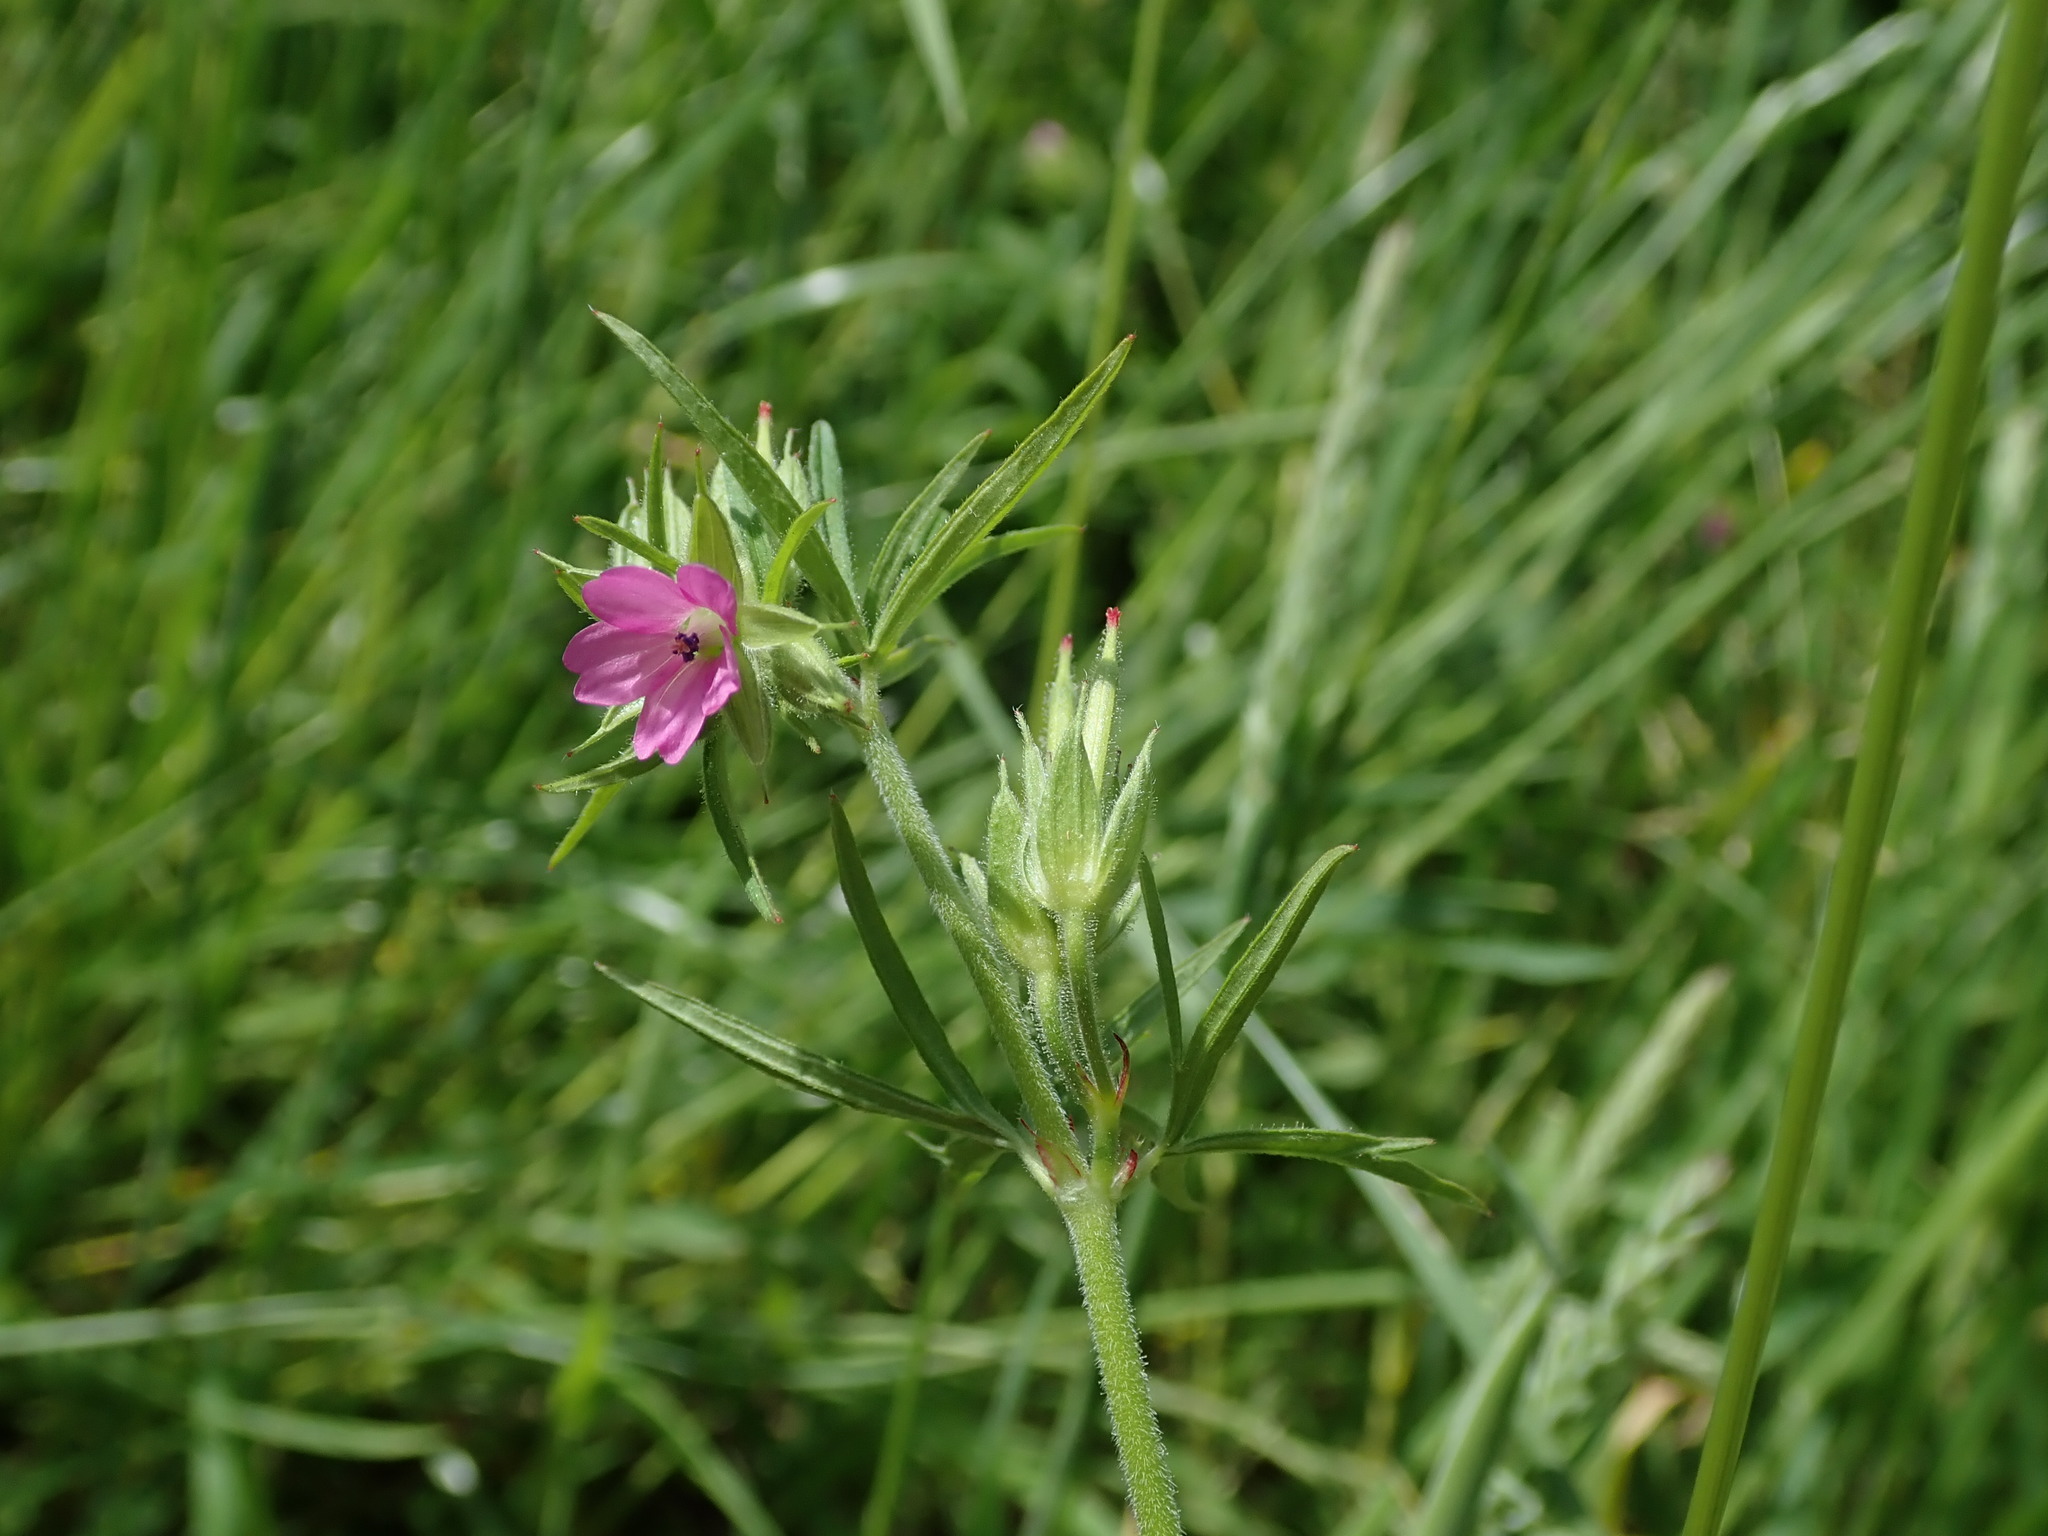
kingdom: Plantae
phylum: Tracheophyta
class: Magnoliopsida
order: Geraniales
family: Geraniaceae
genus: Geranium
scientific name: Geranium dissectum
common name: Cut-leaved crane's-bill
